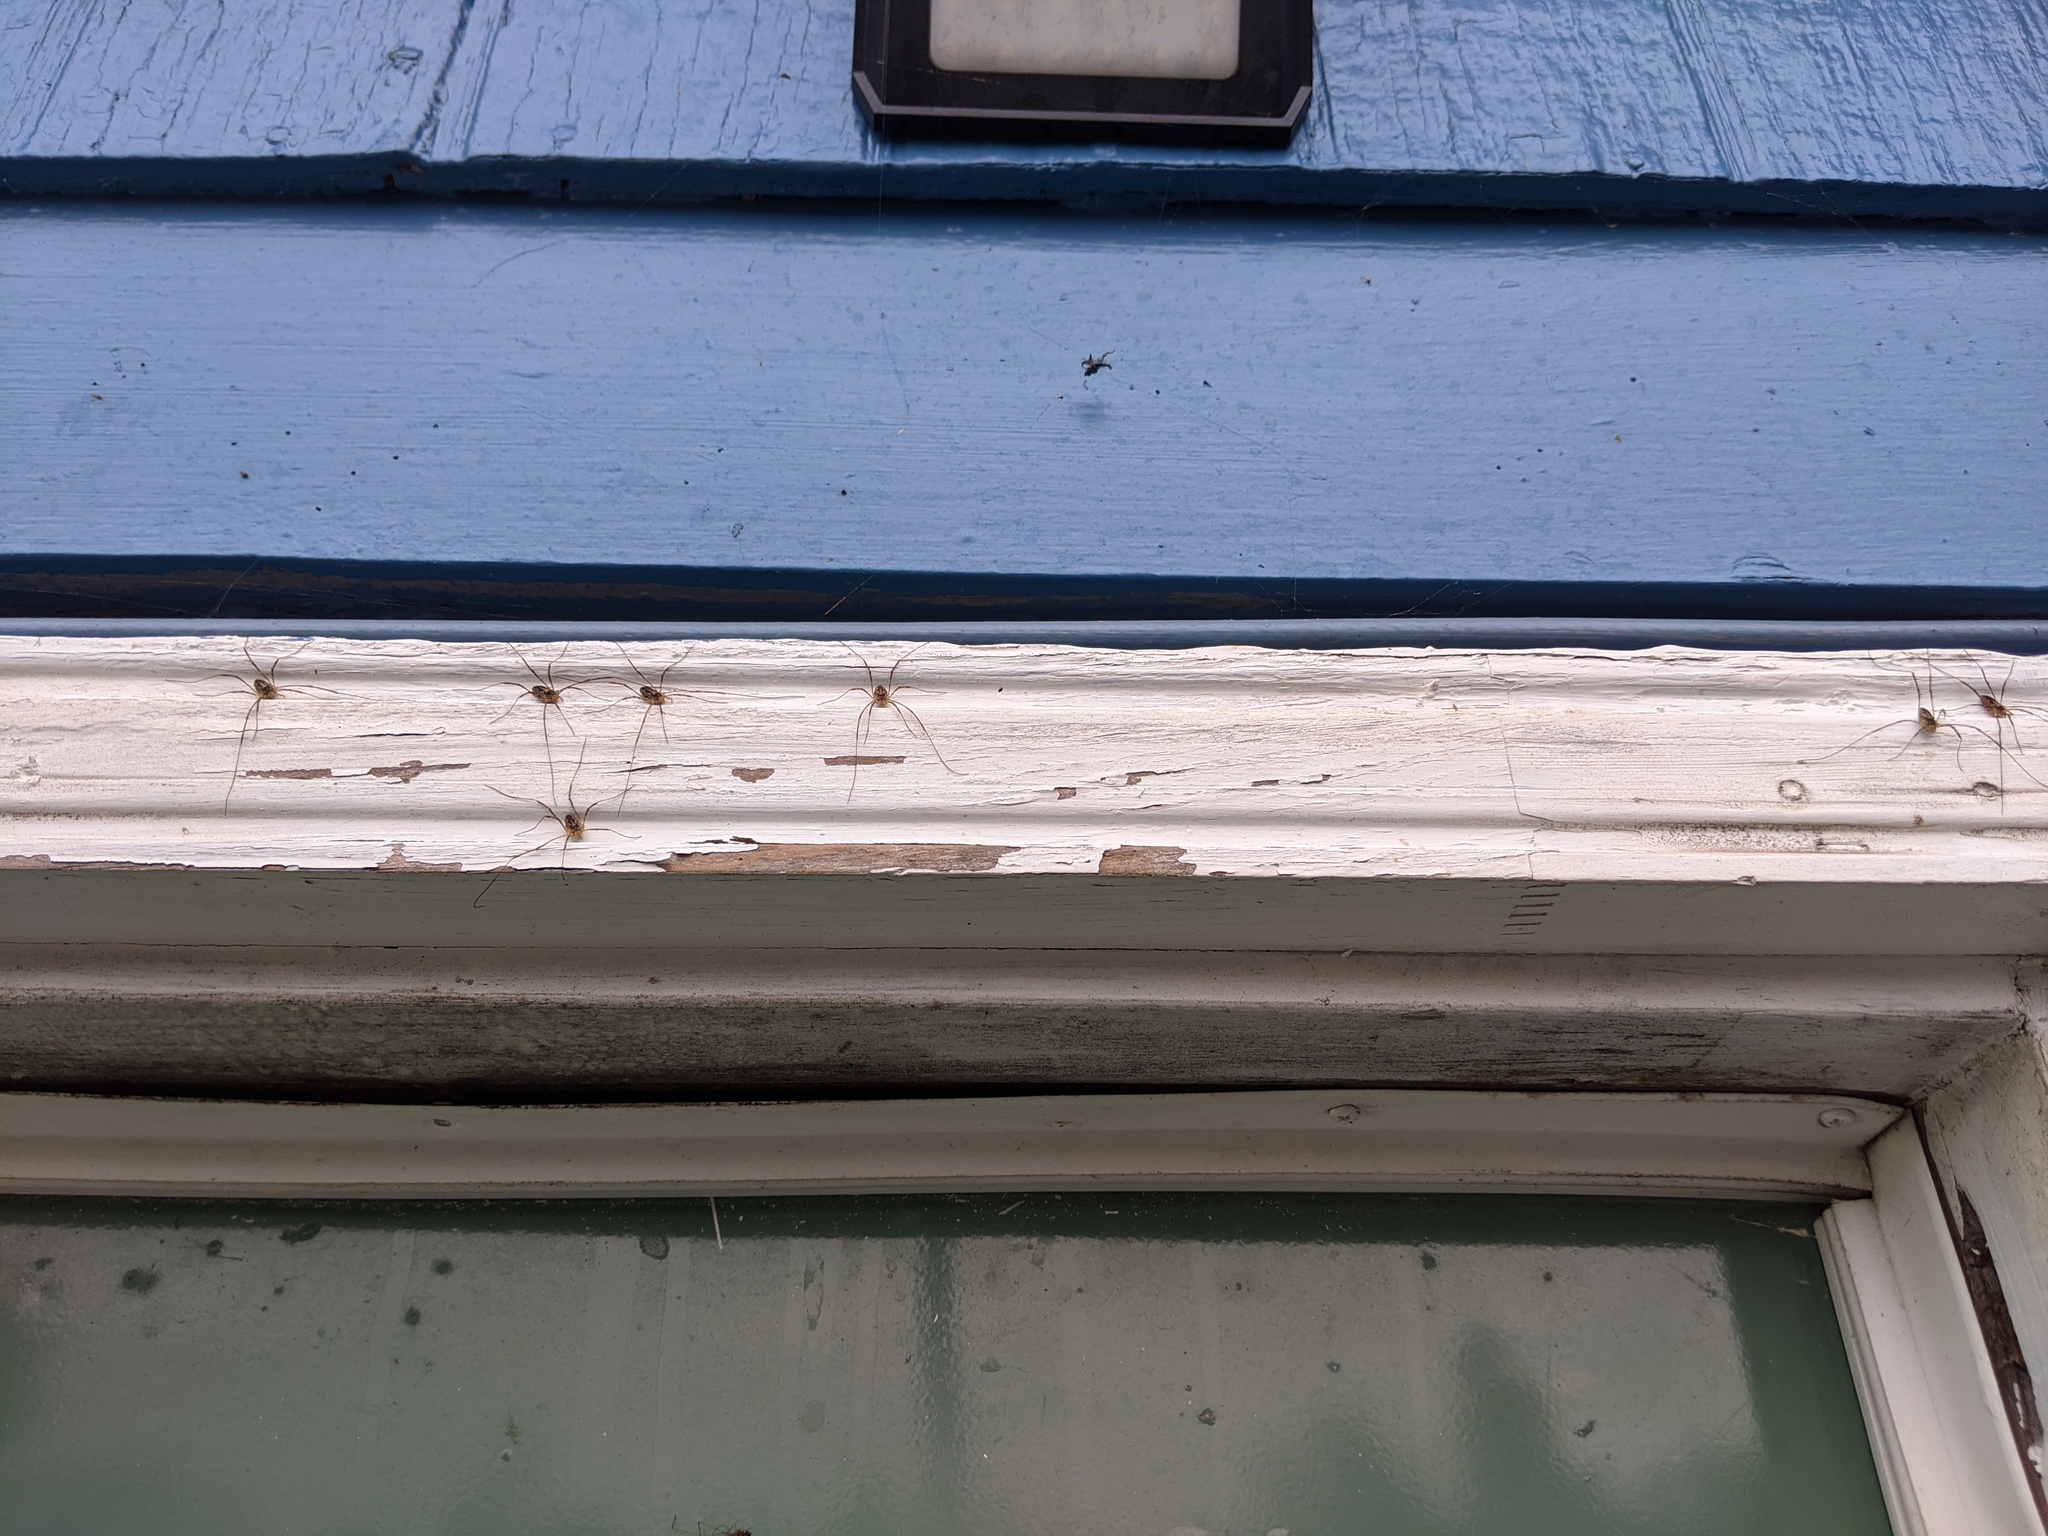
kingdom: Animalia
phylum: Arthropoda
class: Arachnida
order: Opiliones
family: Phalangiidae
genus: Odiellus
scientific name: Odiellus pictus
